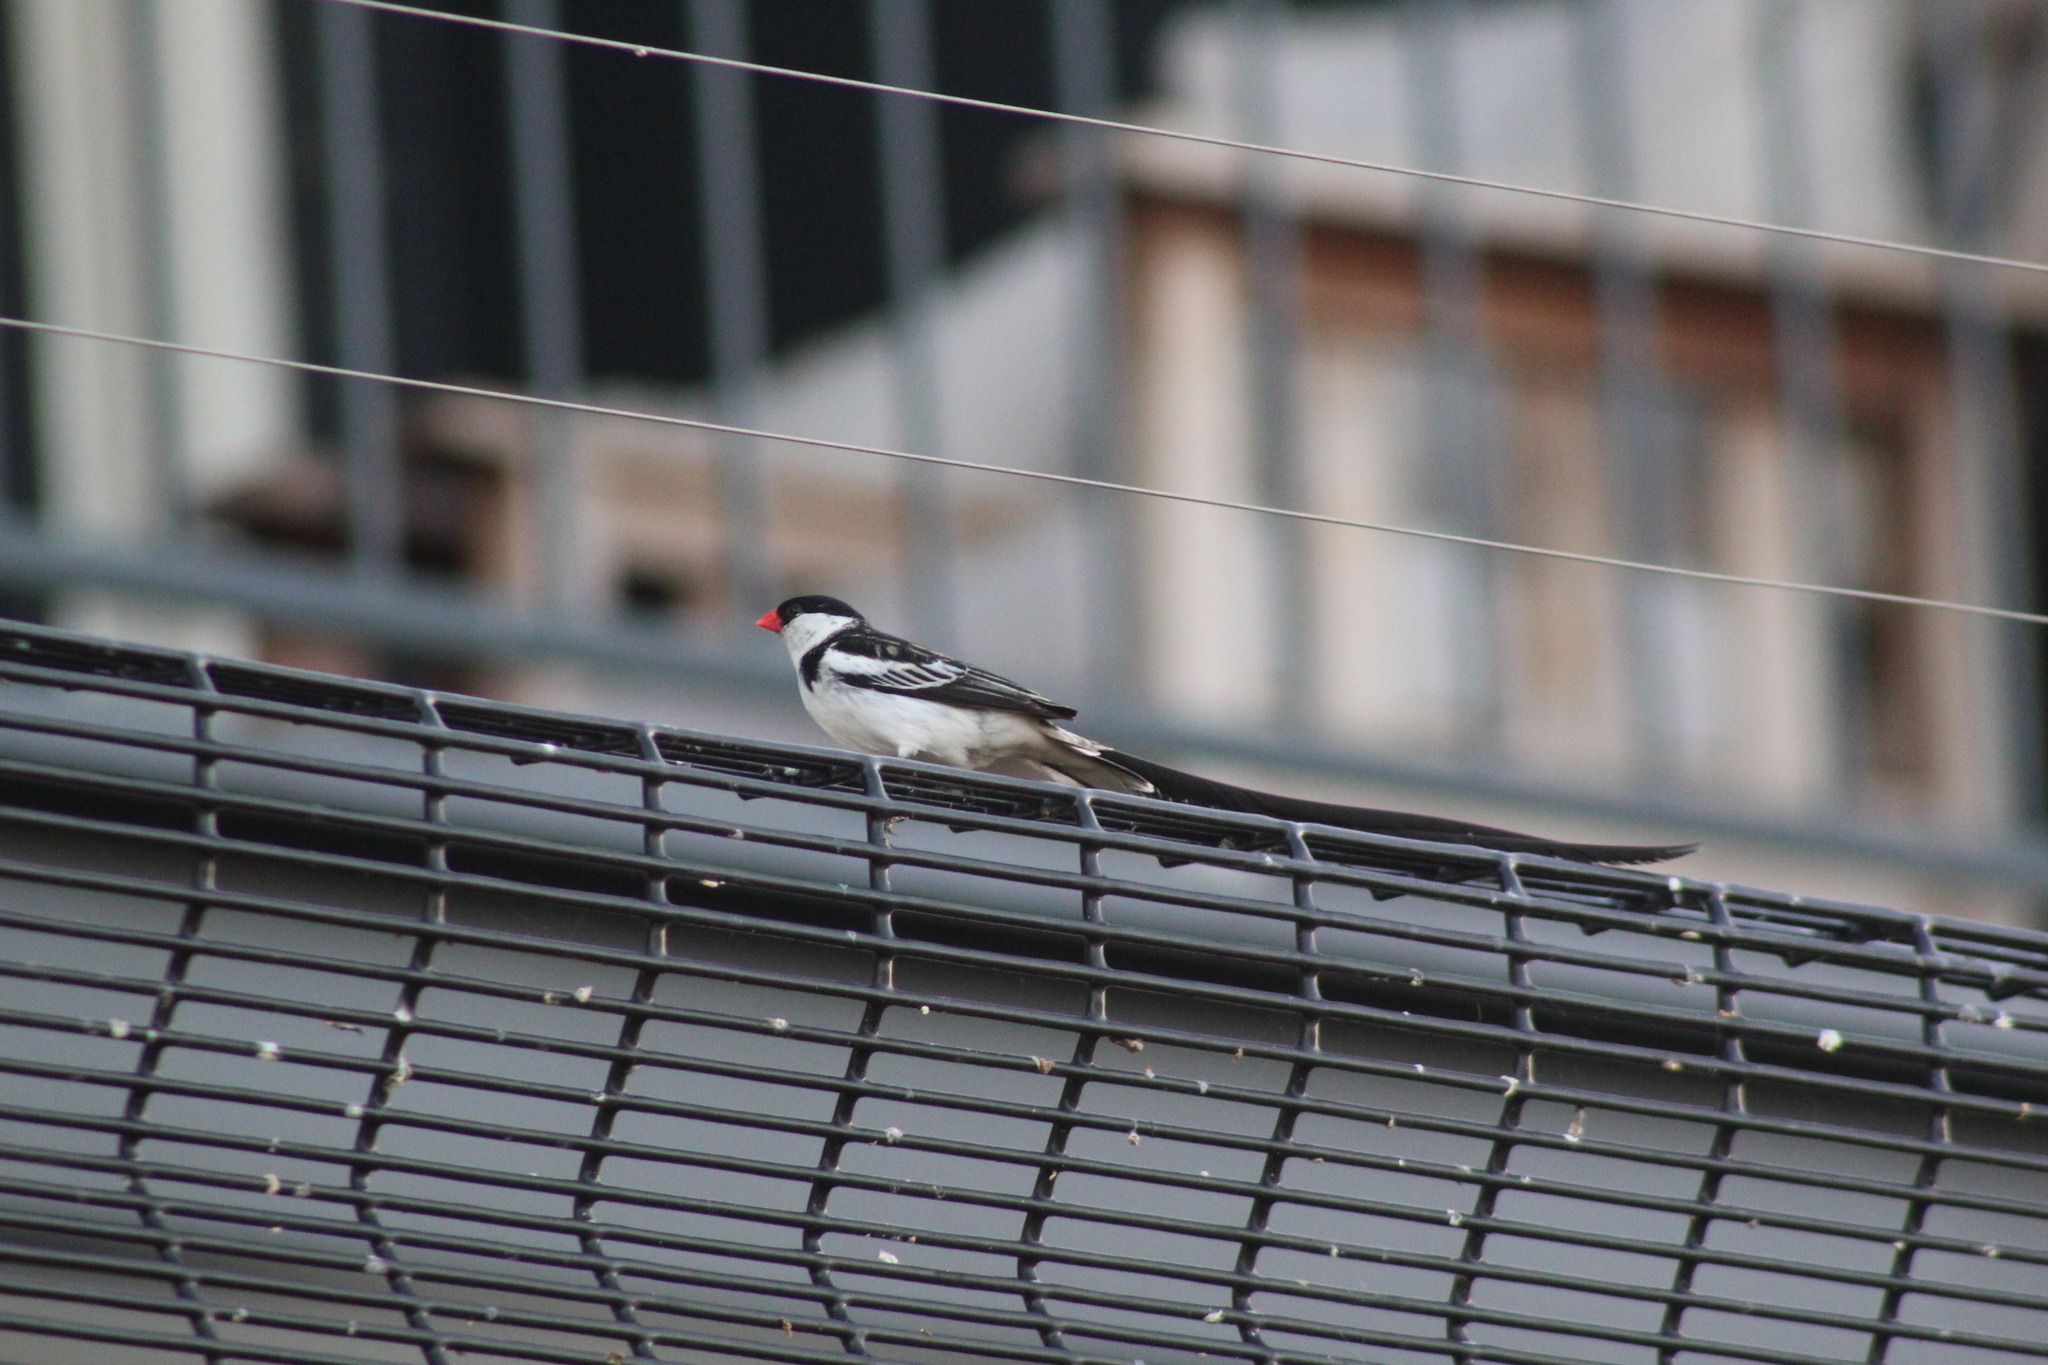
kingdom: Animalia
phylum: Chordata
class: Aves
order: Passeriformes
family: Viduidae
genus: Vidua
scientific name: Vidua macroura
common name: Pin-tailed whydah
